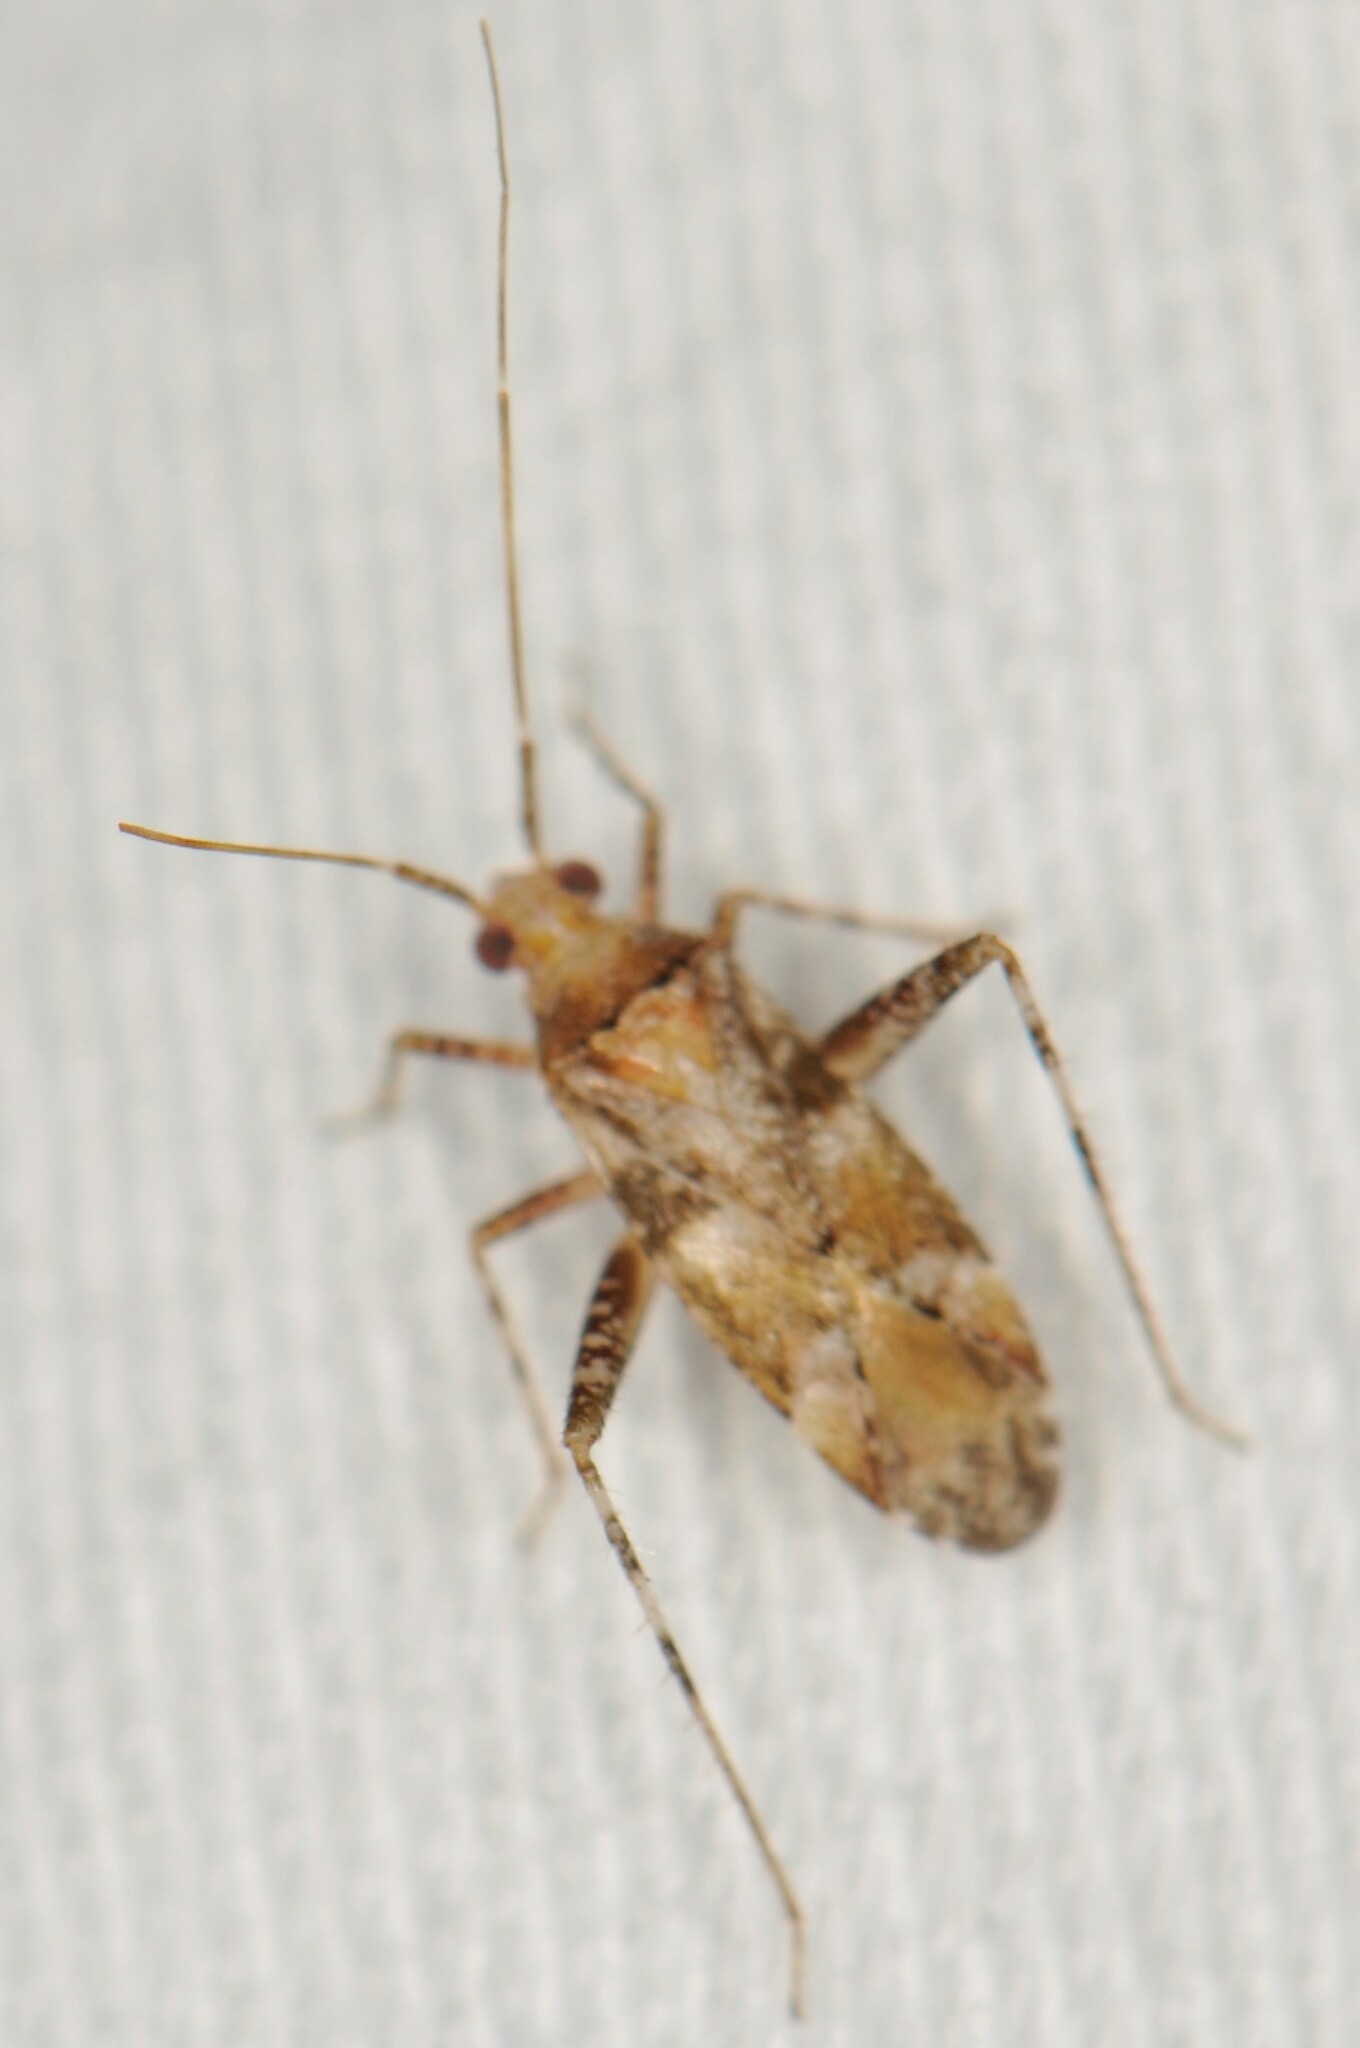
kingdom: Animalia
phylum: Arthropoda
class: Insecta
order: Hemiptera
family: Miridae
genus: Phytocoris
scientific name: Phytocoris simulatus
